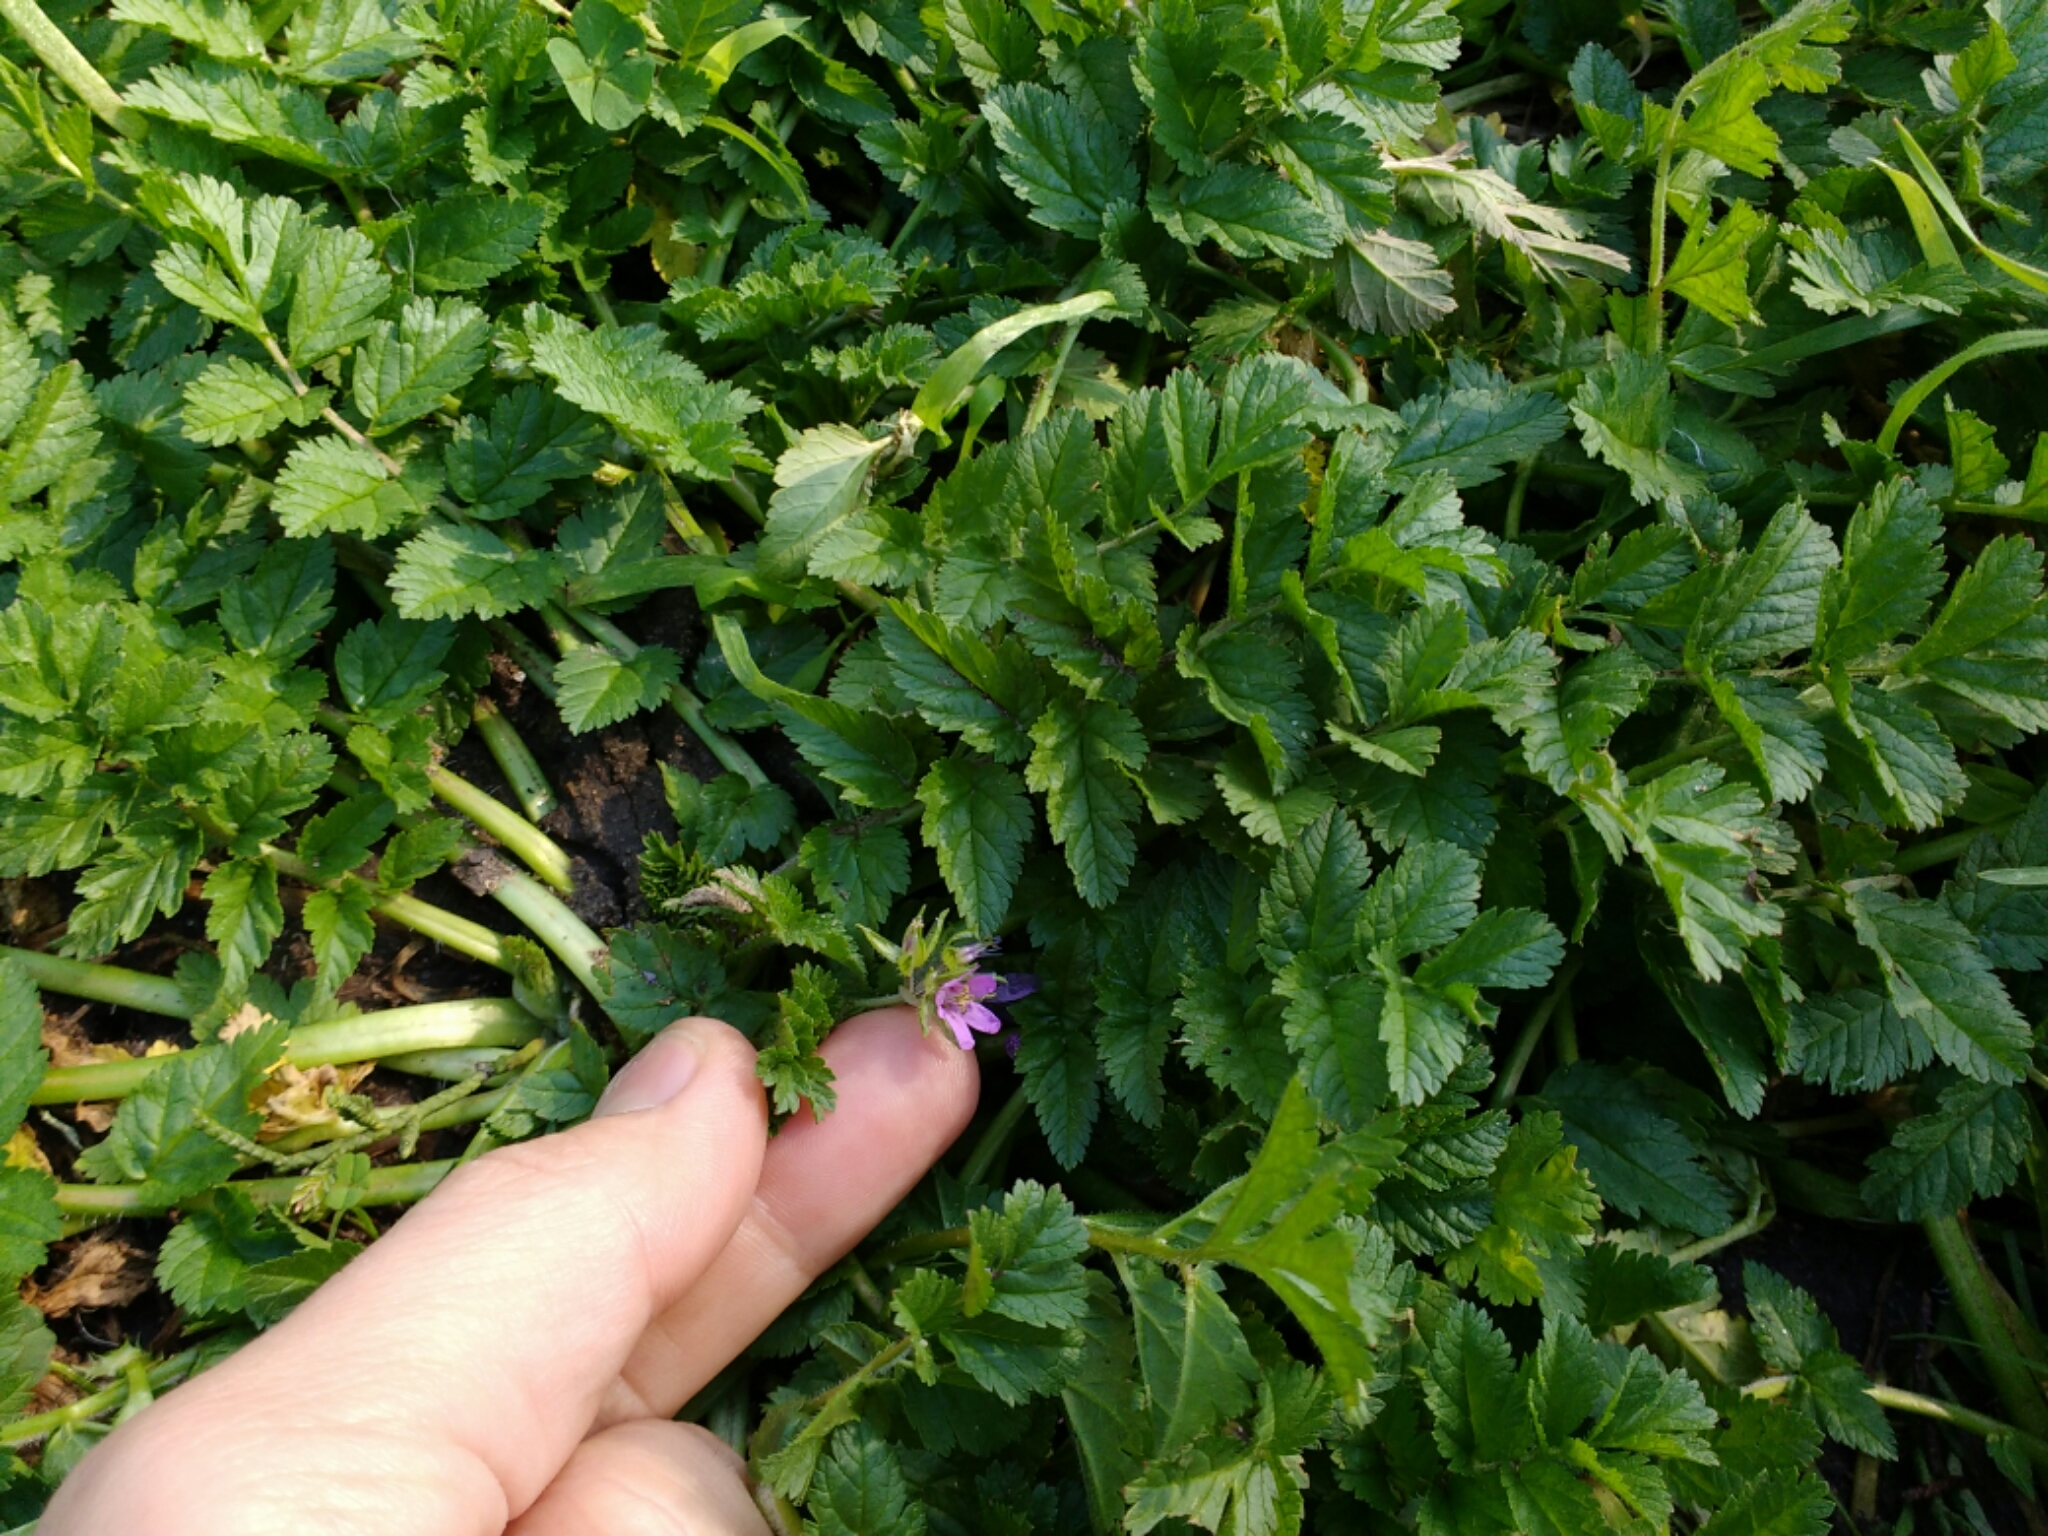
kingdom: Plantae
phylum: Tracheophyta
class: Magnoliopsida
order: Geraniales
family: Geraniaceae
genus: Erodium
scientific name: Erodium moschatum
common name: Musk stork's-bill
